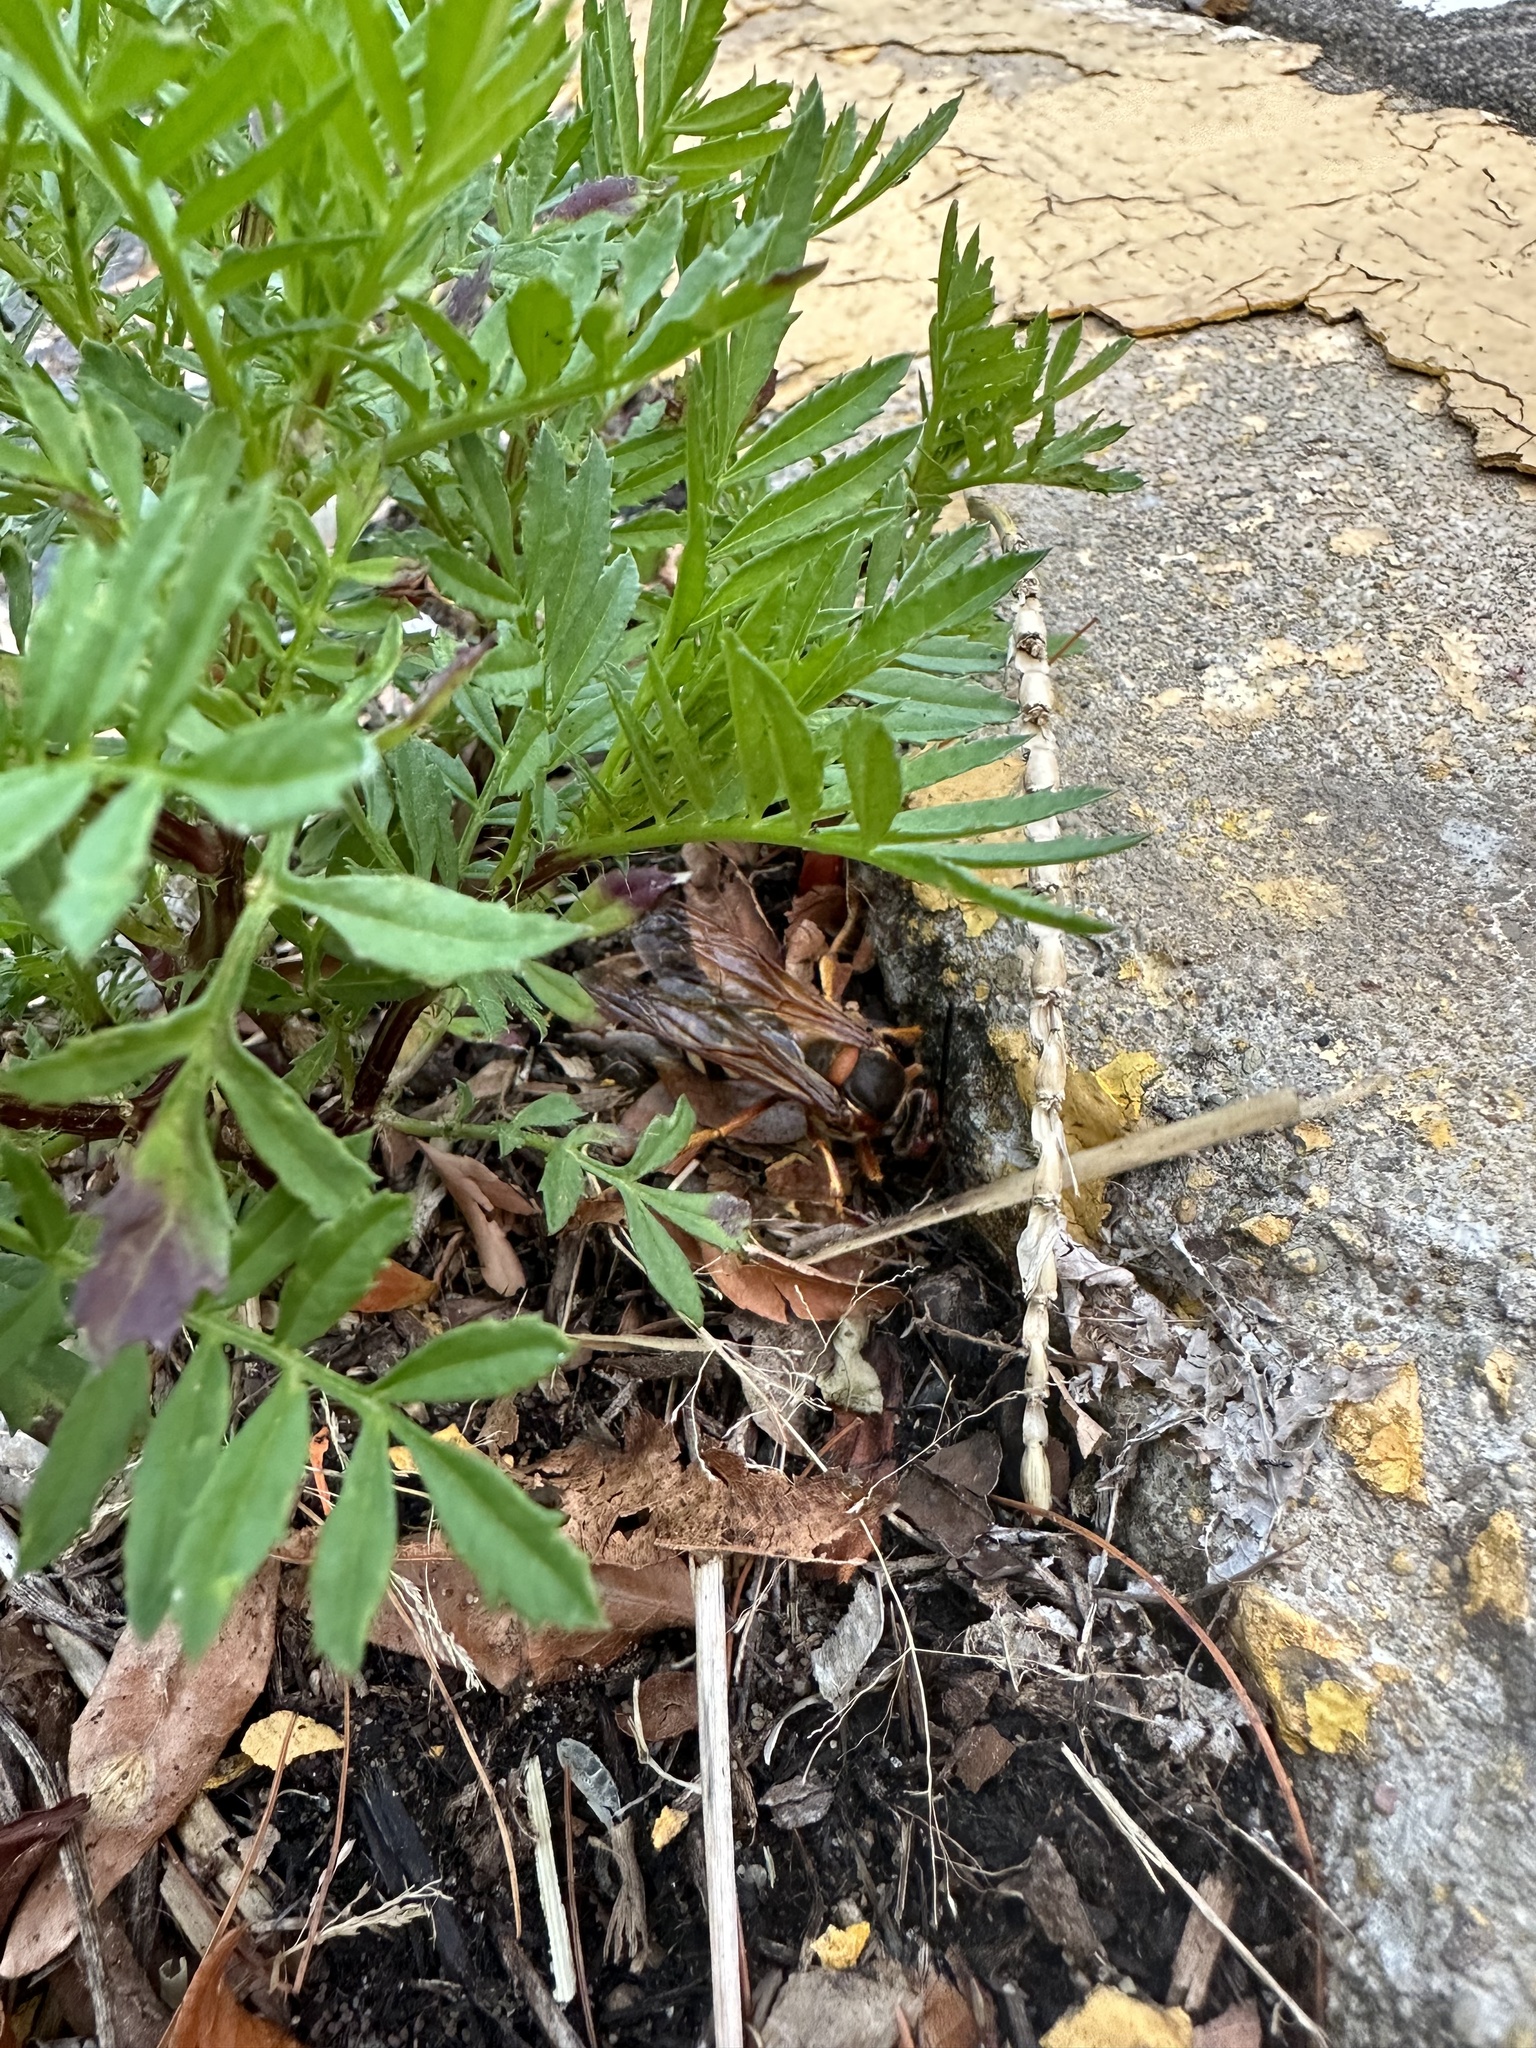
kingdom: Animalia
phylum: Arthropoda
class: Insecta
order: Hymenoptera
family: Crabronidae
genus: Sphecius
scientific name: Sphecius speciosus
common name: Cicada killer
